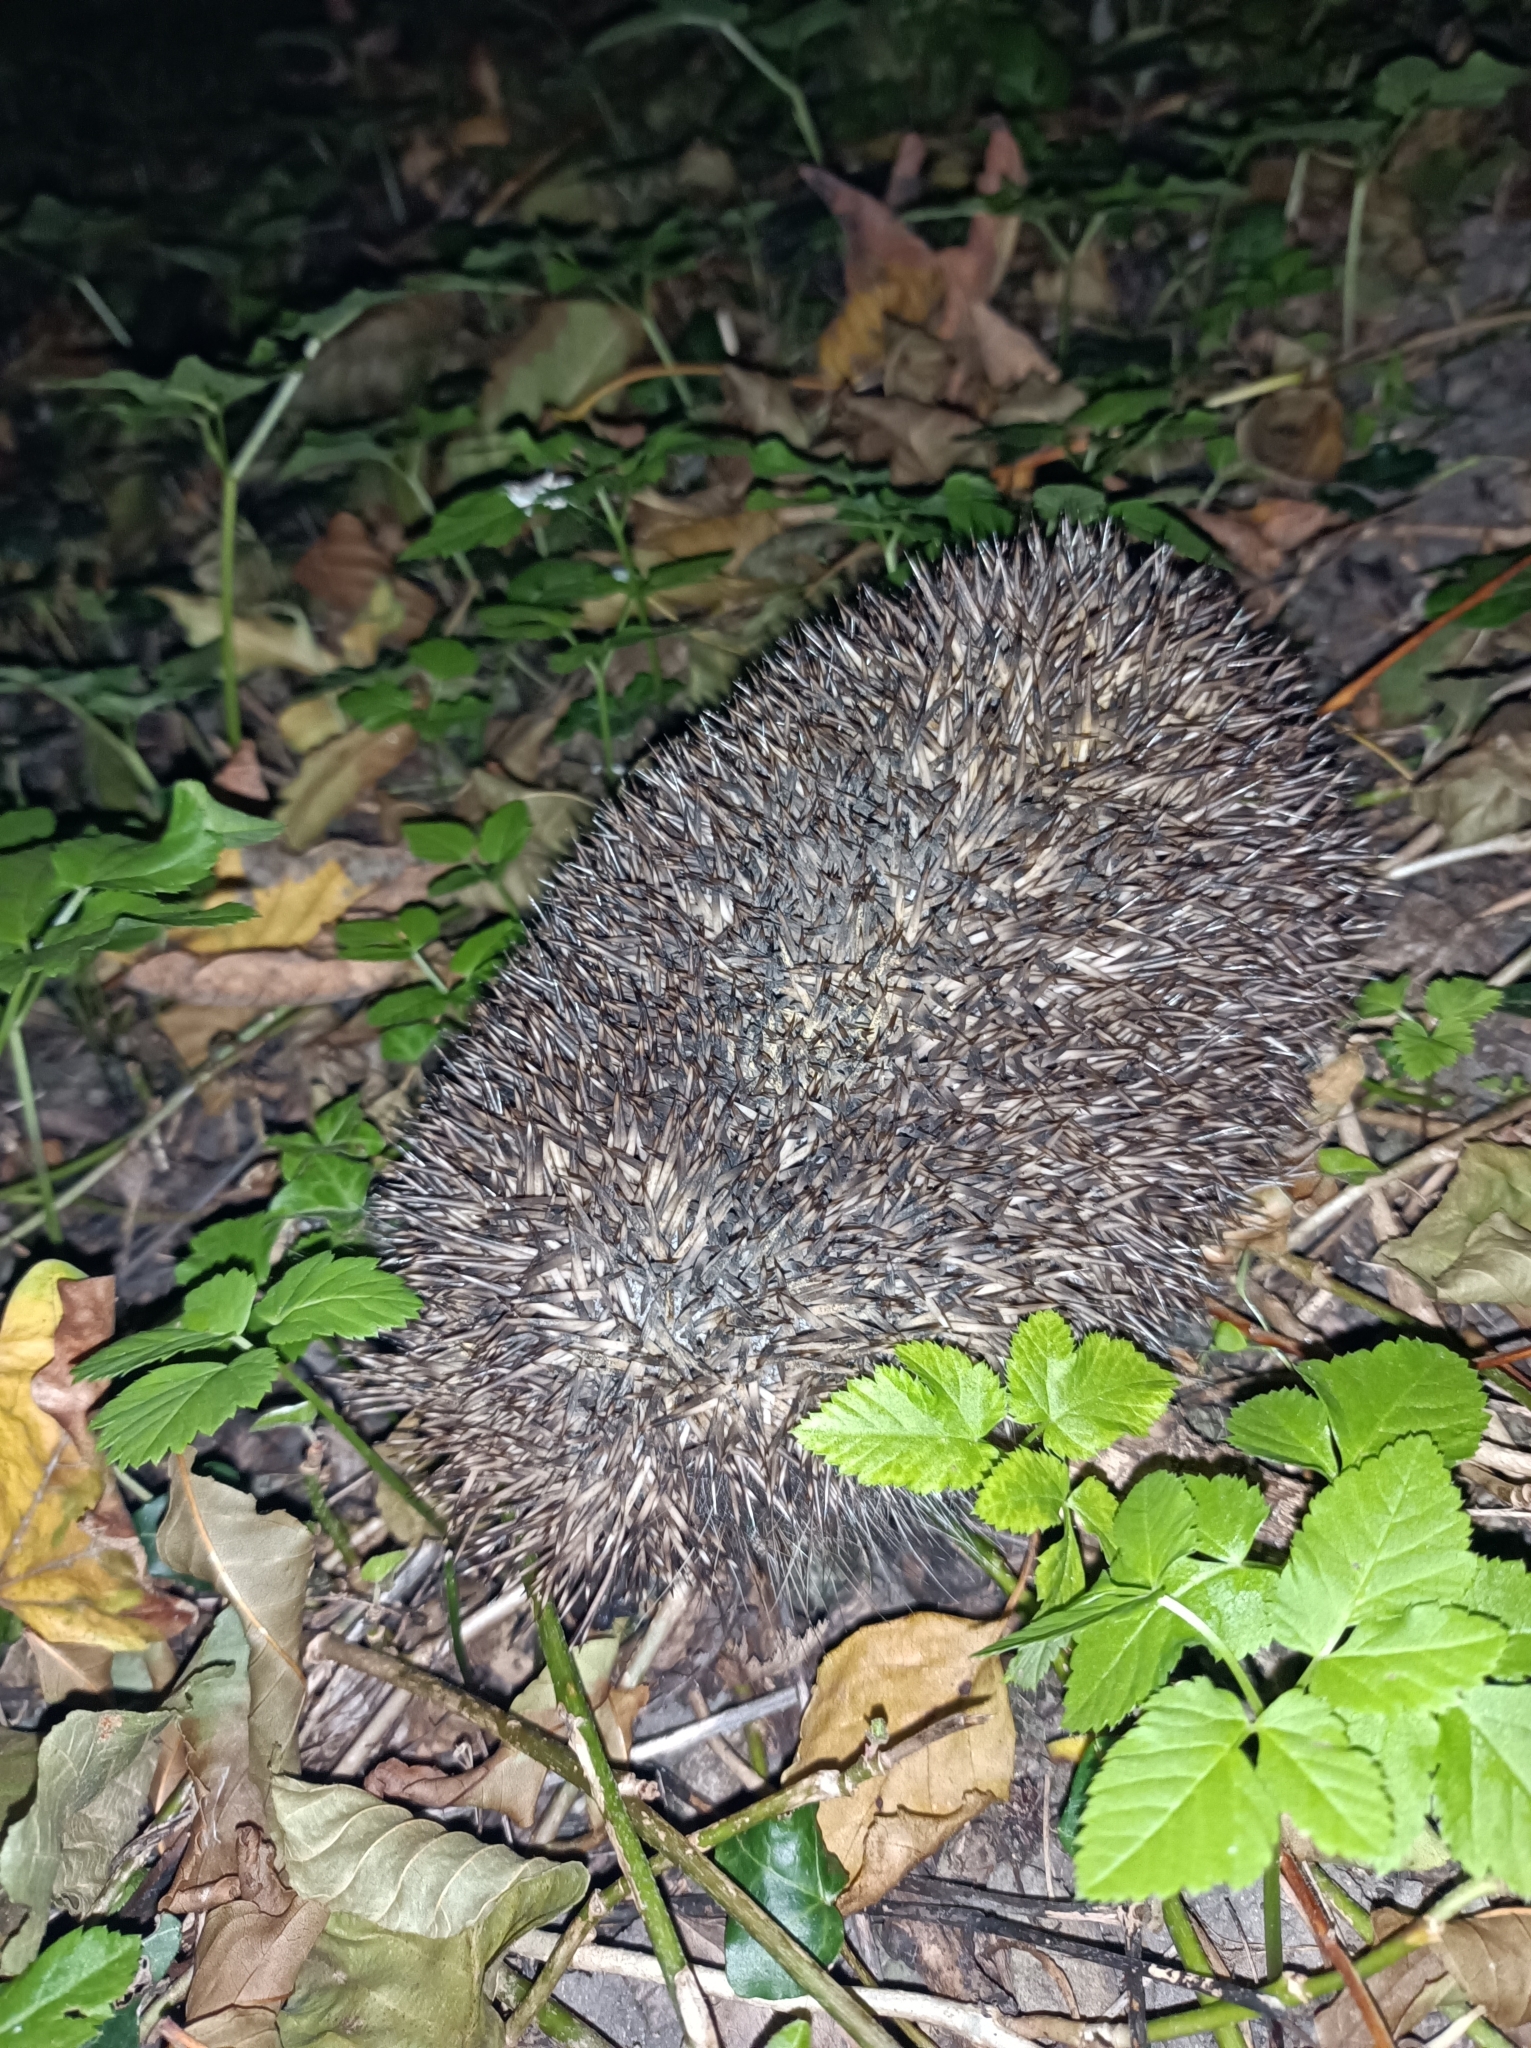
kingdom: Animalia
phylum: Chordata
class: Mammalia
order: Erinaceomorpha
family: Erinaceidae
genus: Erinaceus
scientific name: Erinaceus roumanicus
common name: Northern white-breasted hedgehog
